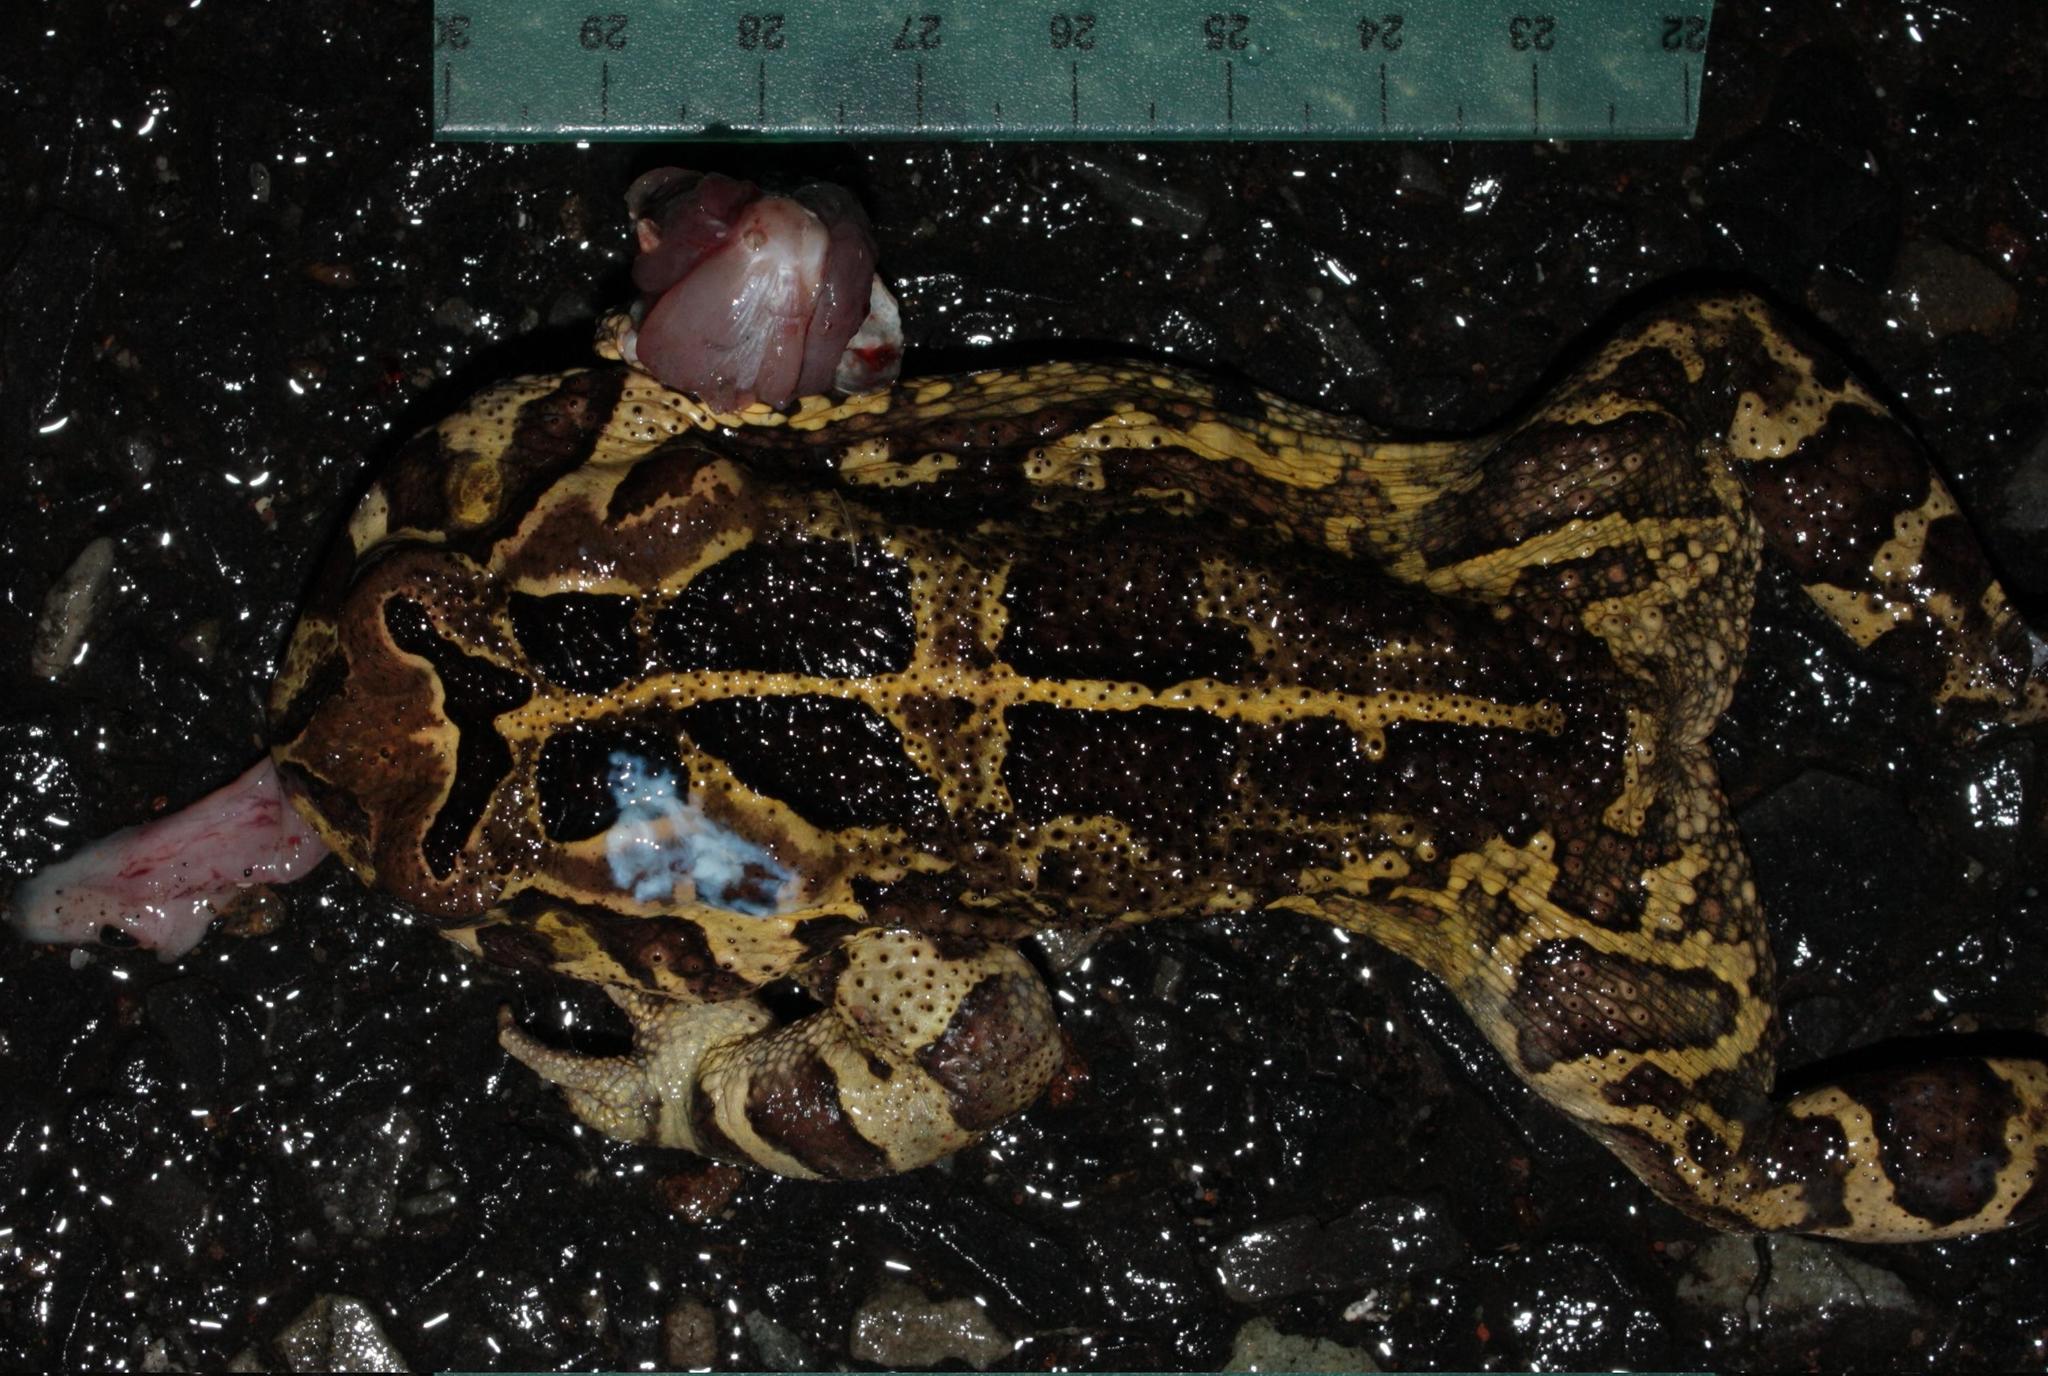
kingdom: Animalia
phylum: Chordata
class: Amphibia
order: Anura
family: Bufonidae
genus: Sclerophrys
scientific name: Sclerophrys pantherina
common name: Panther toad
